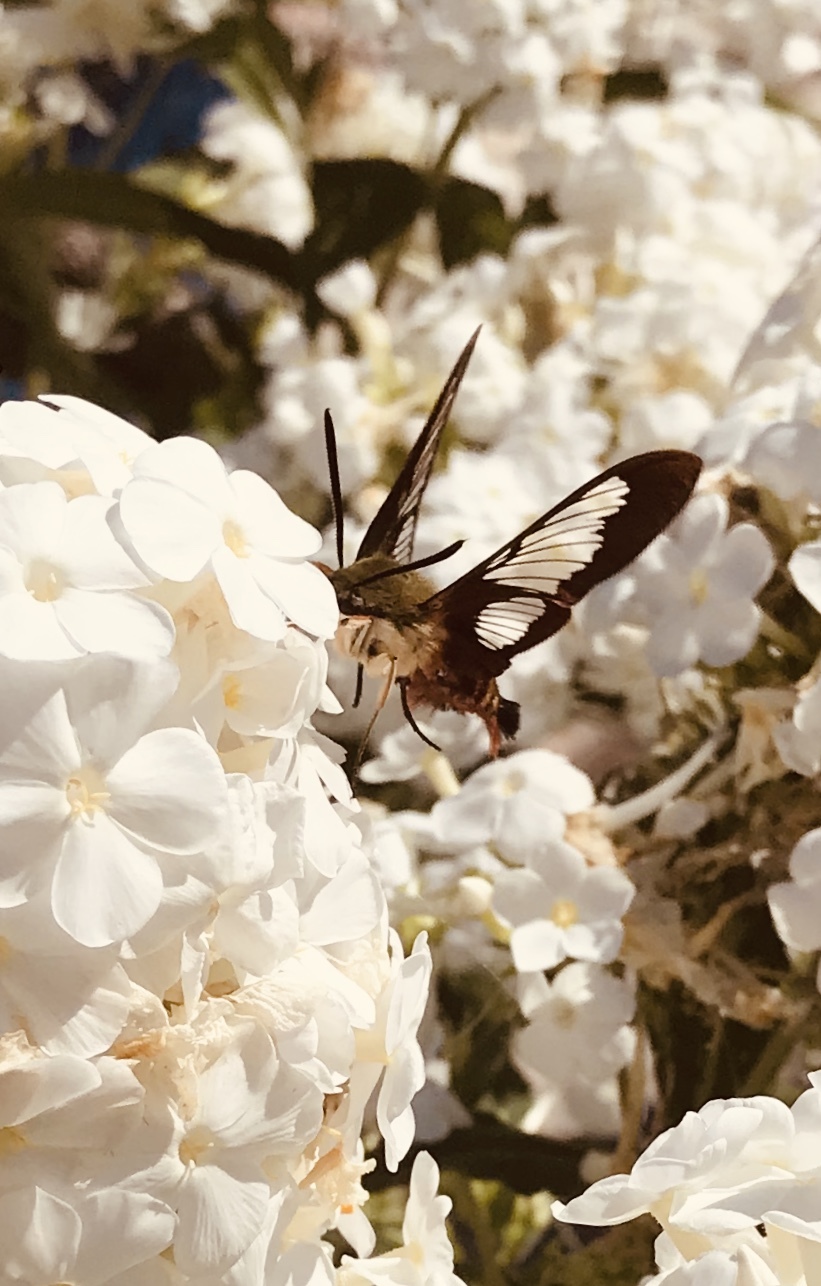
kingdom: Animalia
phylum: Arthropoda
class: Insecta
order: Lepidoptera
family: Sphingidae
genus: Hemaris
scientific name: Hemaris thysbe
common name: Common clear-wing
